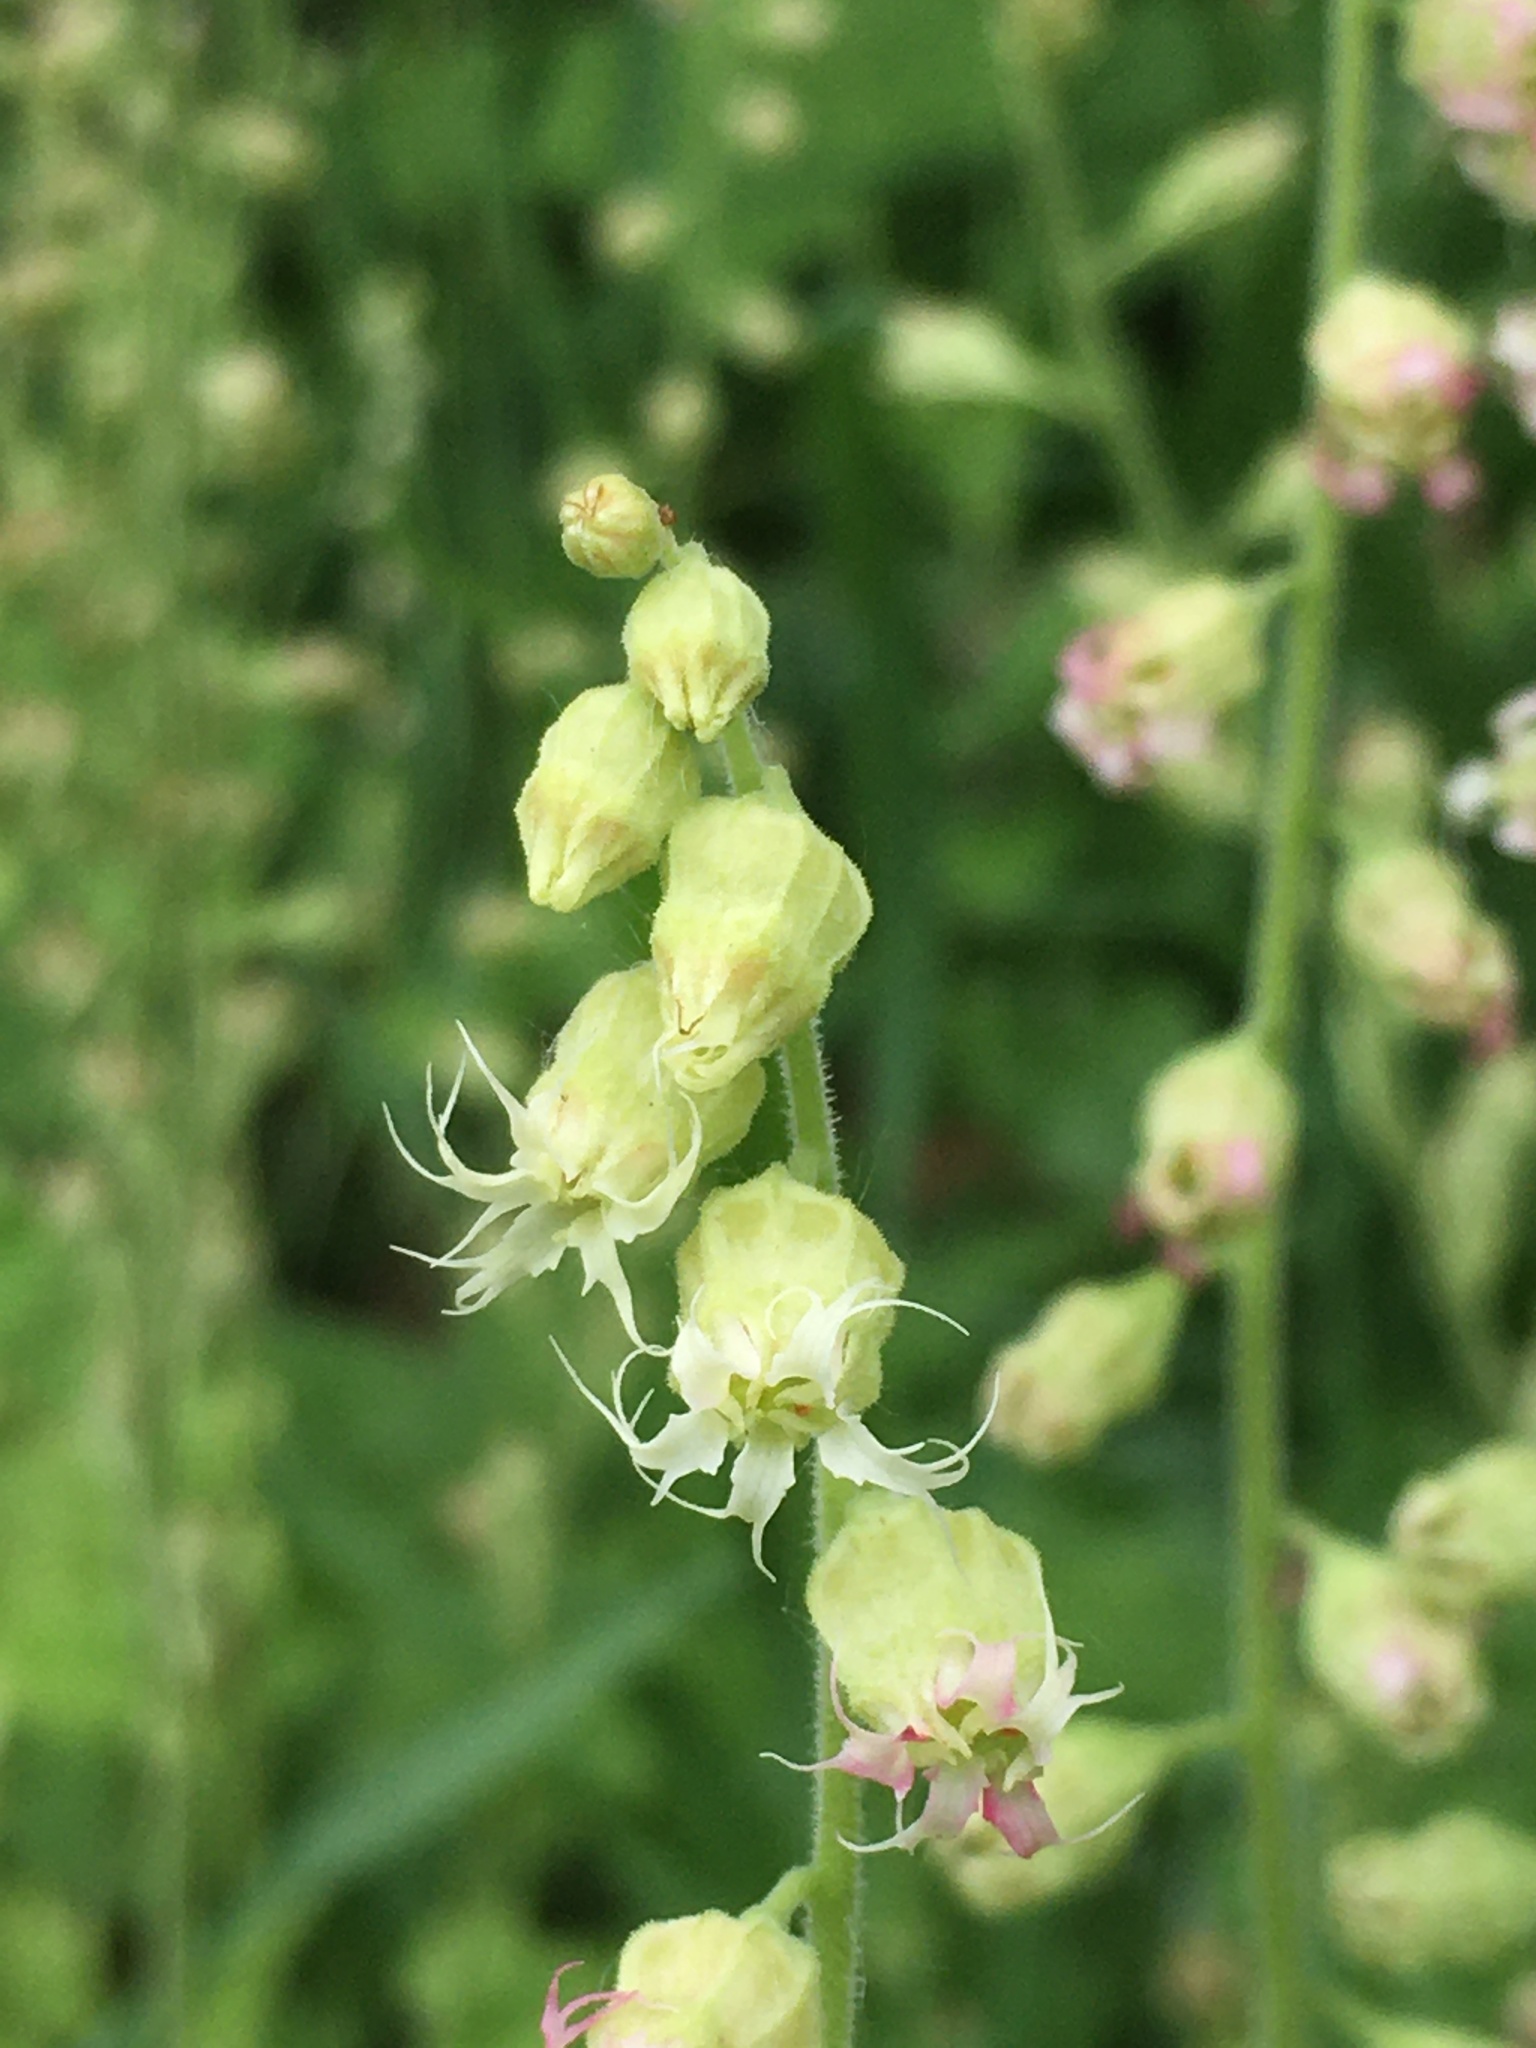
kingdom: Plantae
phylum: Tracheophyta
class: Magnoliopsida
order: Saxifragales
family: Saxifragaceae
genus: Tellima
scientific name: Tellima grandiflora
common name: Fringecups
